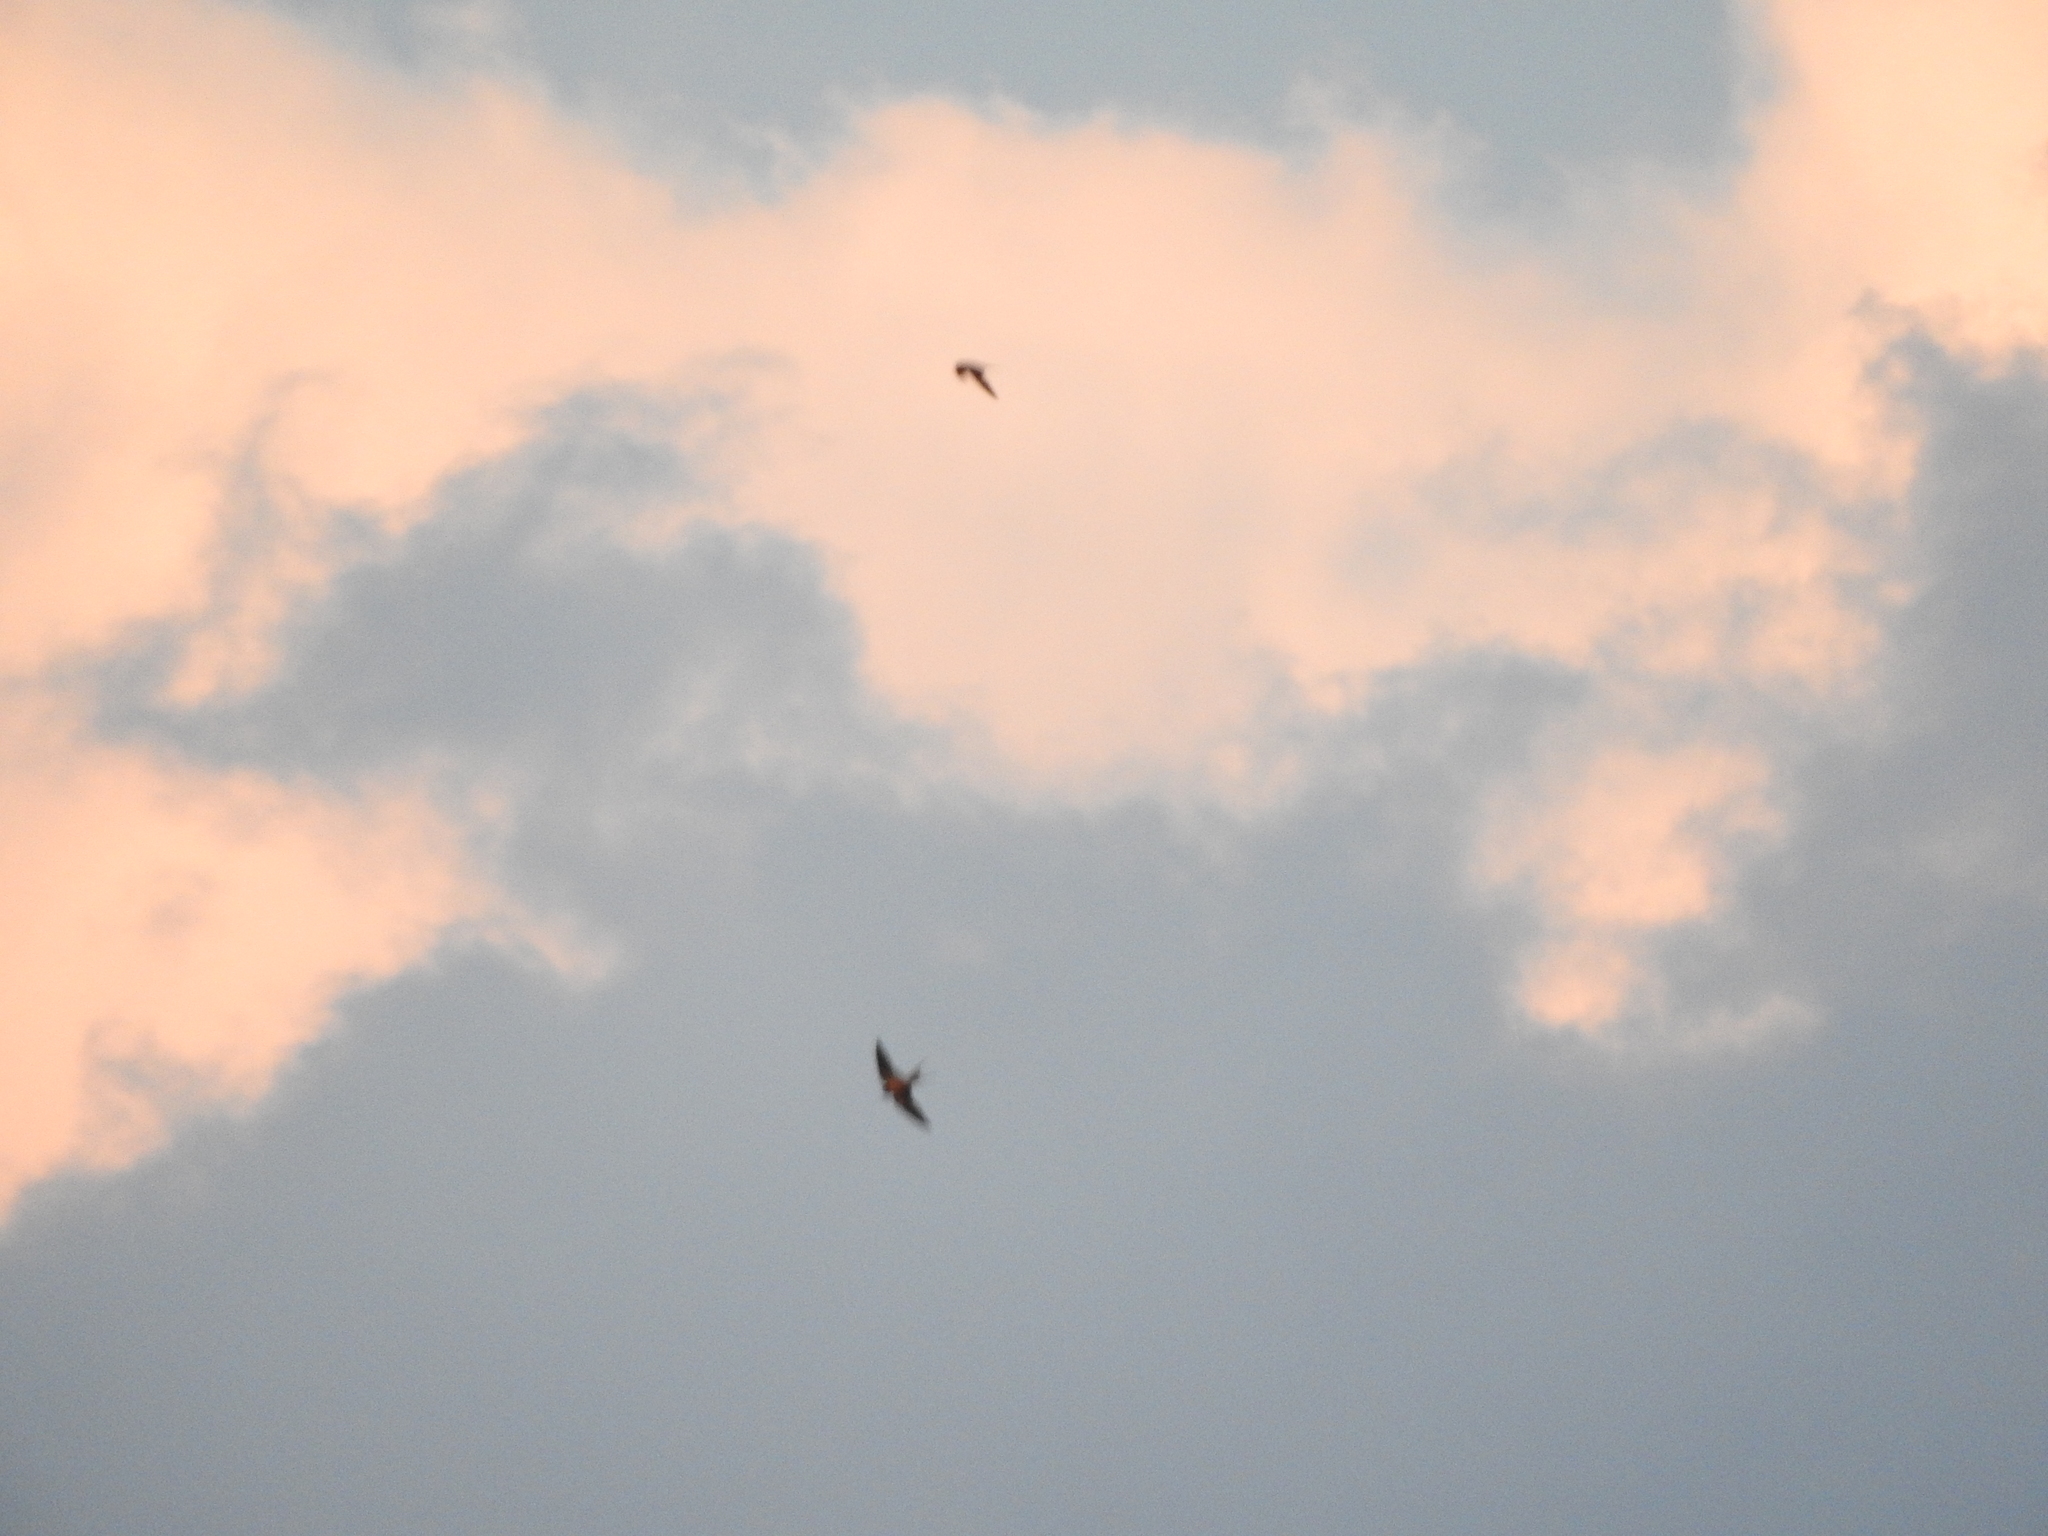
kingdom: Animalia
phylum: Chordata
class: Aves
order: Passeriformes
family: Hirundinidae
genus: Hirundo
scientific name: Hirundo rustica
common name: Barn swallow
